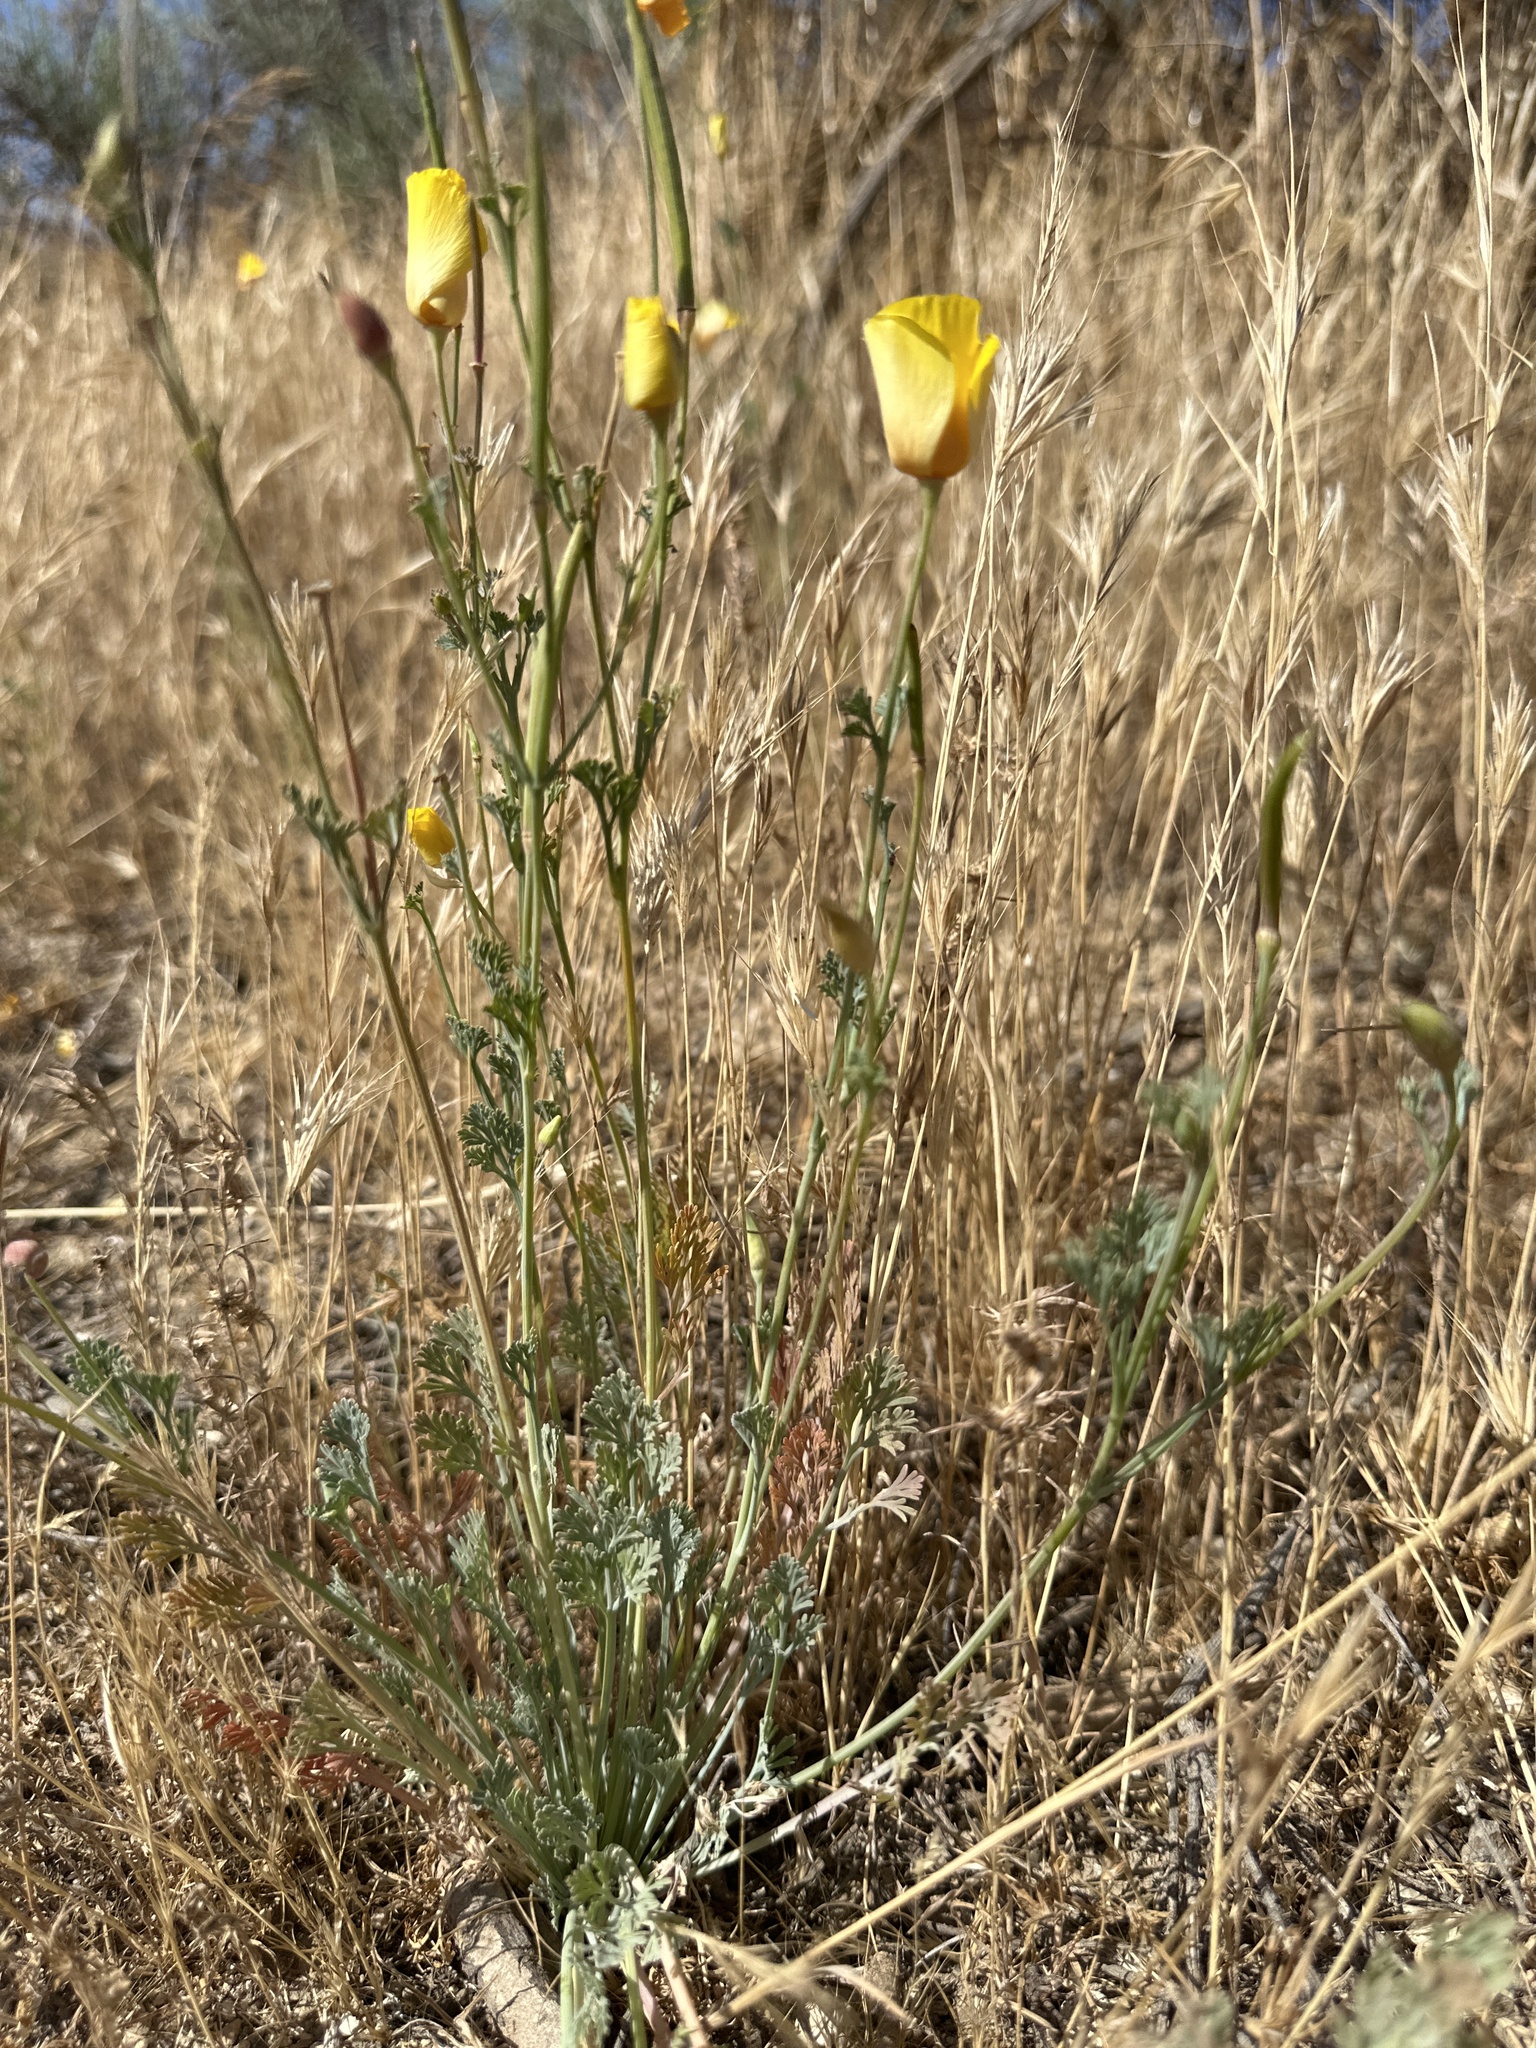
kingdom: Plantae
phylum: Tracheophyta
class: Magnoliopsida
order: Ranunculales
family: Papaveraceae
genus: Eschscholzia
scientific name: Eschscholzia caespitosa
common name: Tufted california-poppy
